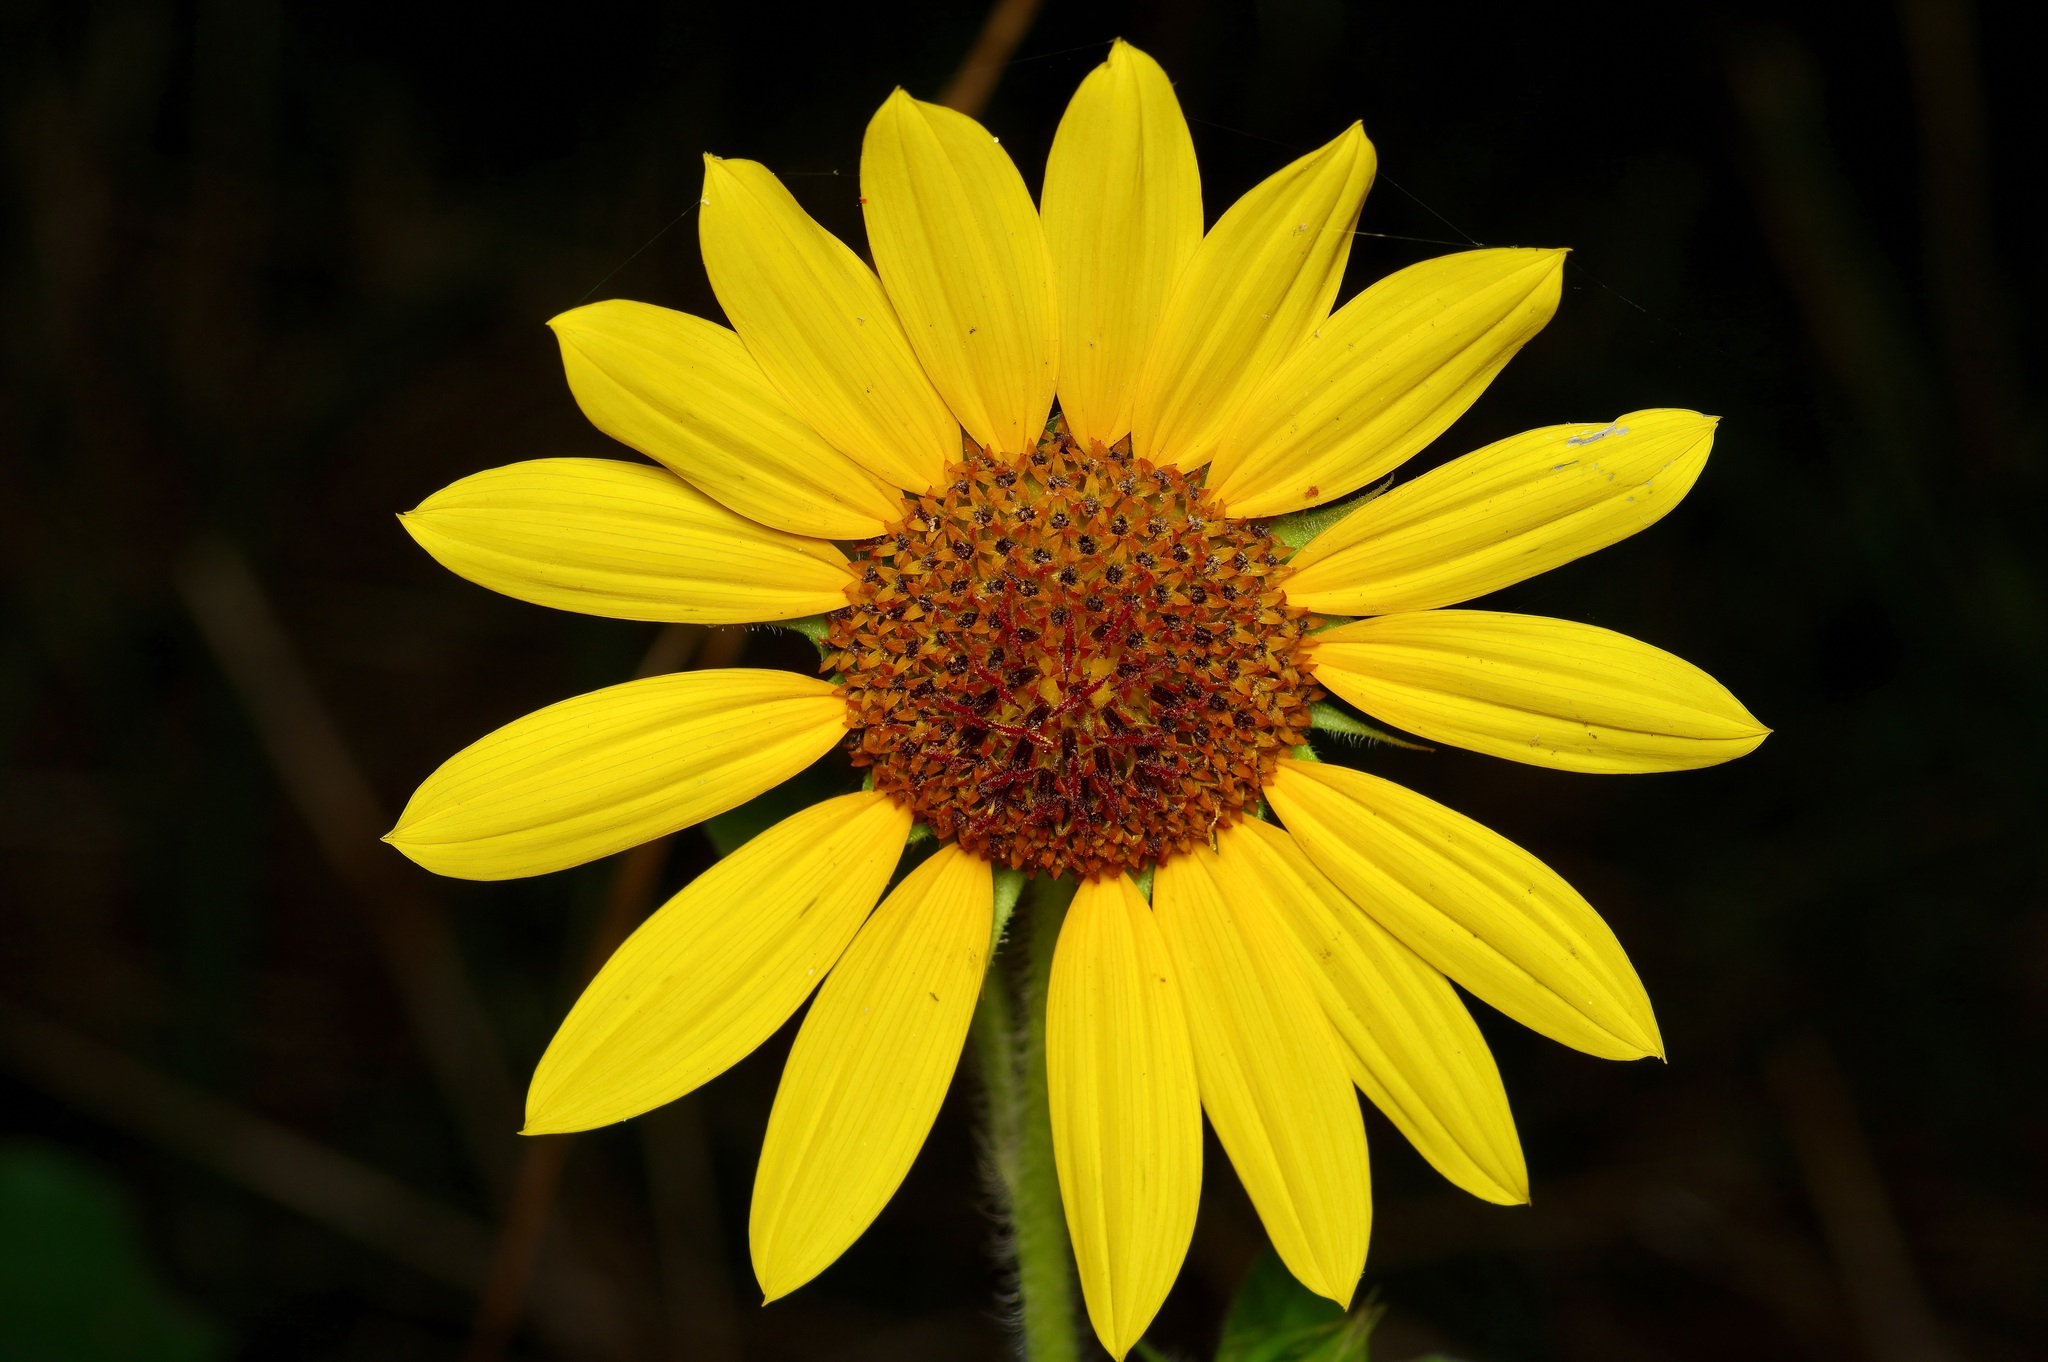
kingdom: Plantae
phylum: Tracheophyta
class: Magnoliopsida
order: Asterales
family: Asteraceae
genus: Helianthus
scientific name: Helianthus annuus
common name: Sunflower
